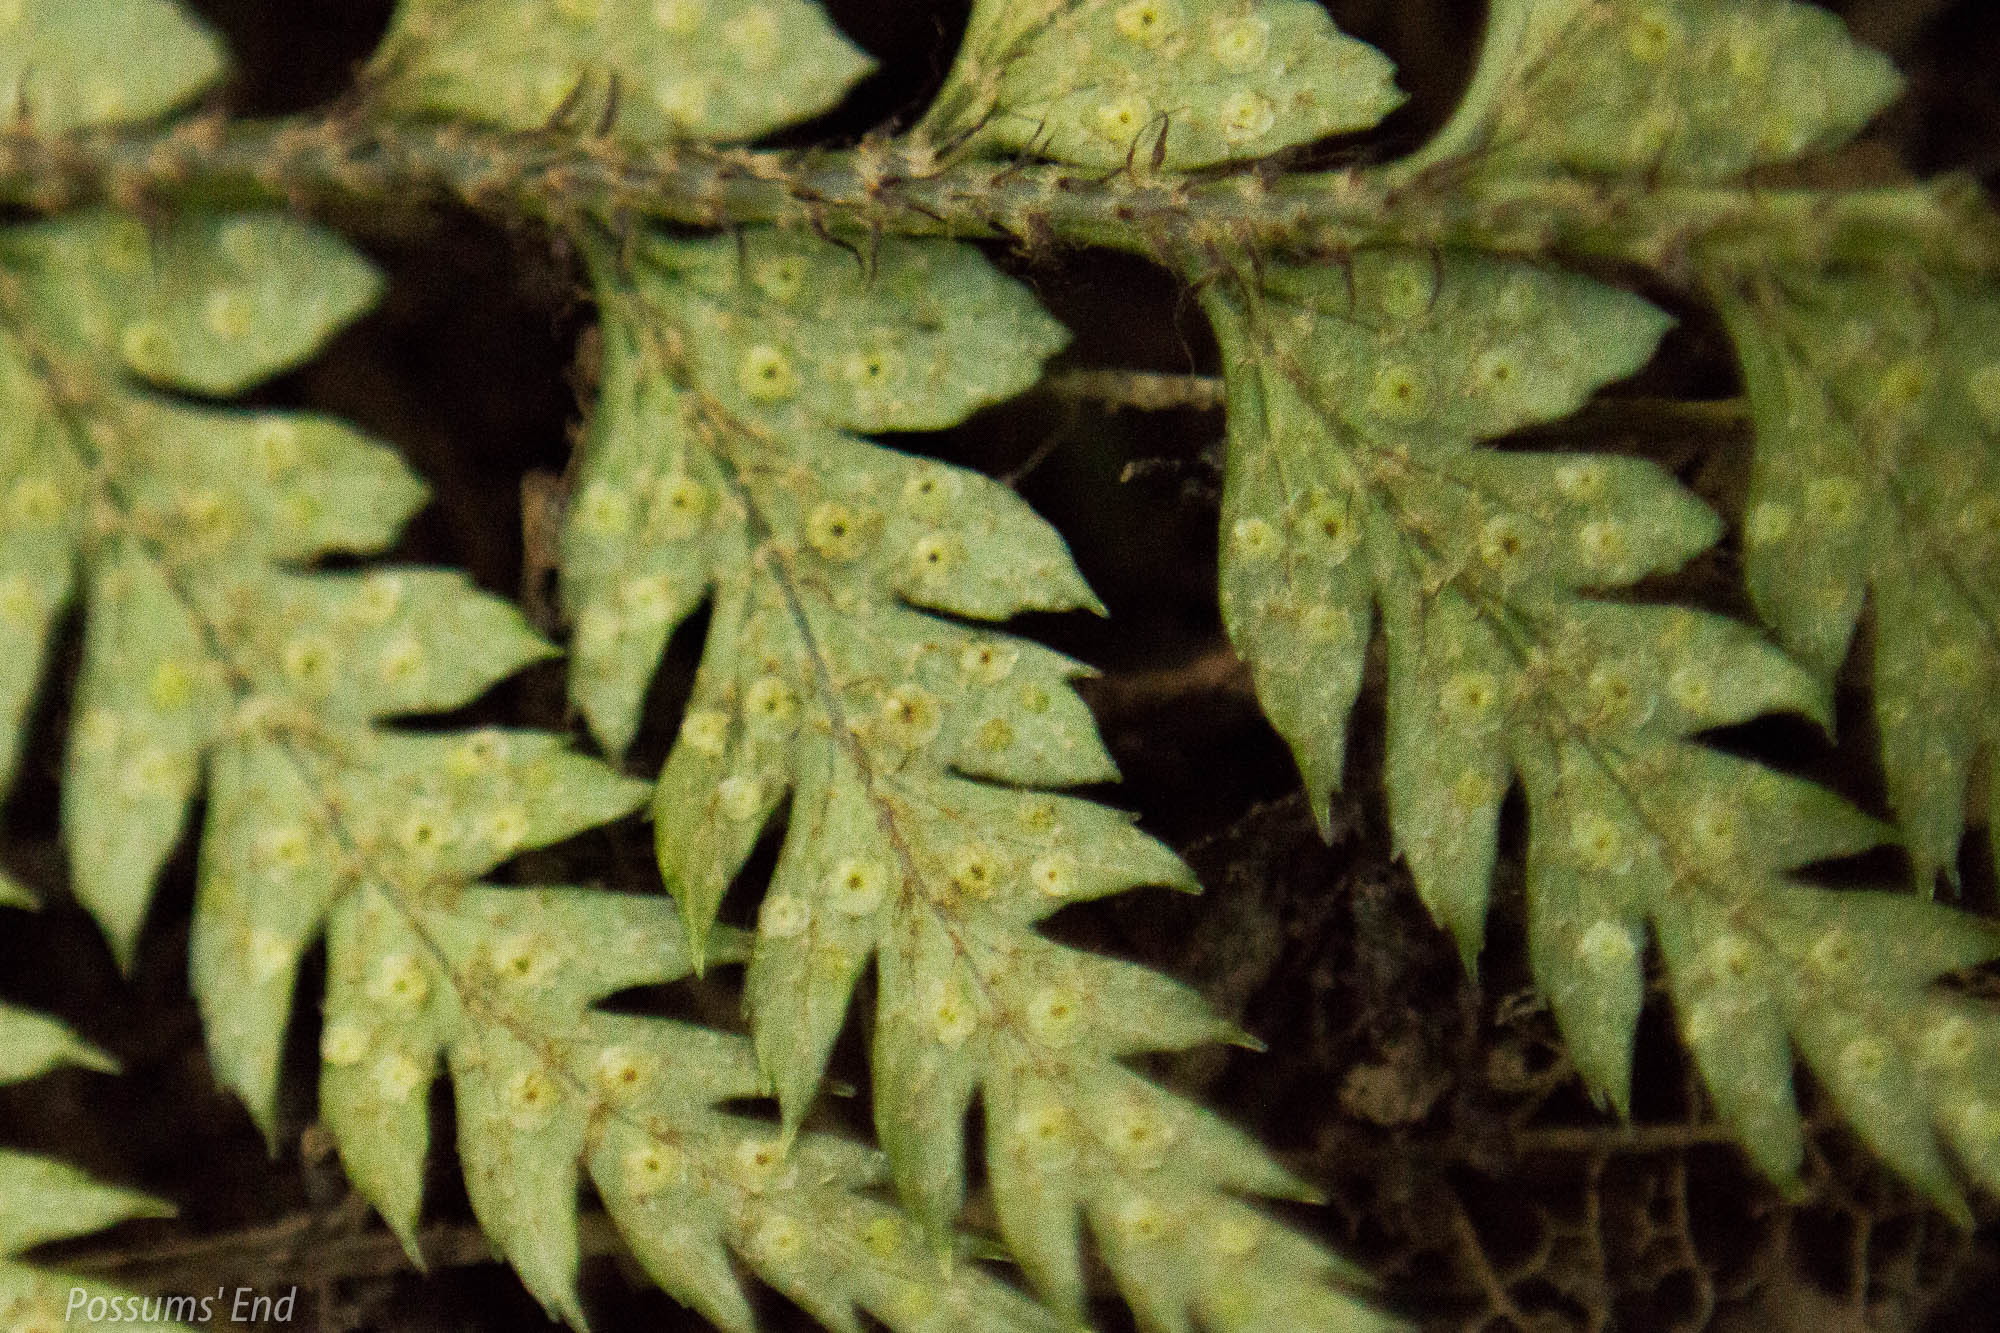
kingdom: Plantae
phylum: Tracheophyta
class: Polypodiopsida
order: Polypodiales
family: Dryopteridaceae
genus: Polystichum
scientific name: Polystichum neozelandicum
